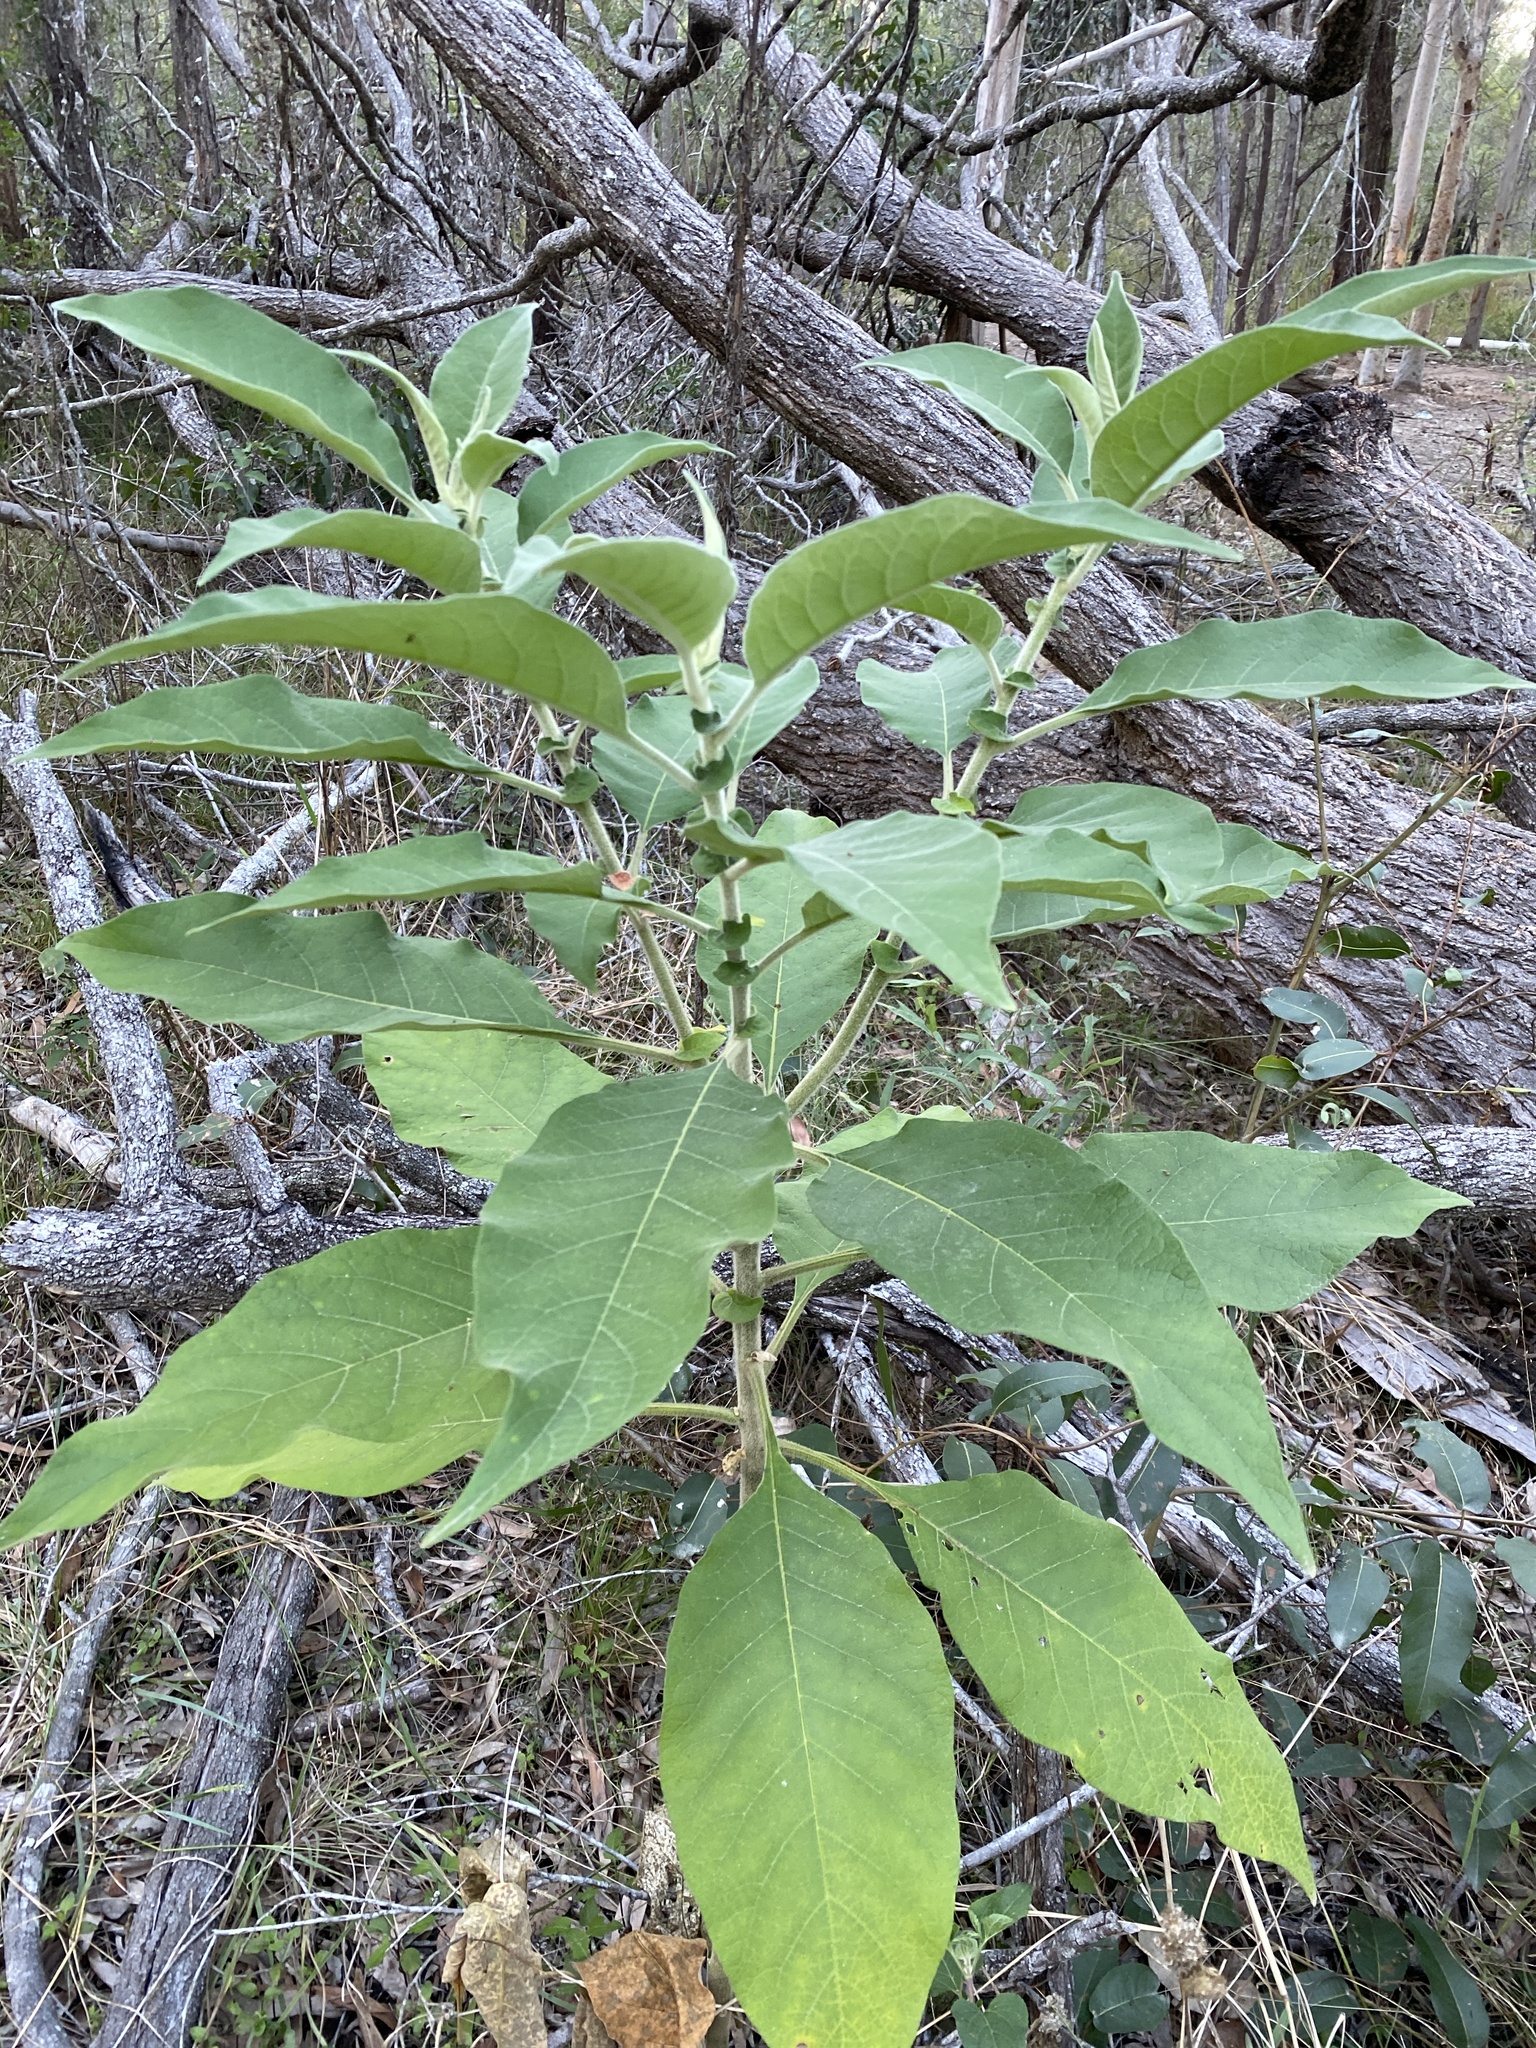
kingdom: Plantae
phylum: Tracheophyta
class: Magnoliopsida
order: Solanales
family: Solanaceae
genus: Solanum
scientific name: Solanum mauritianum
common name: Earleaf nightshade
